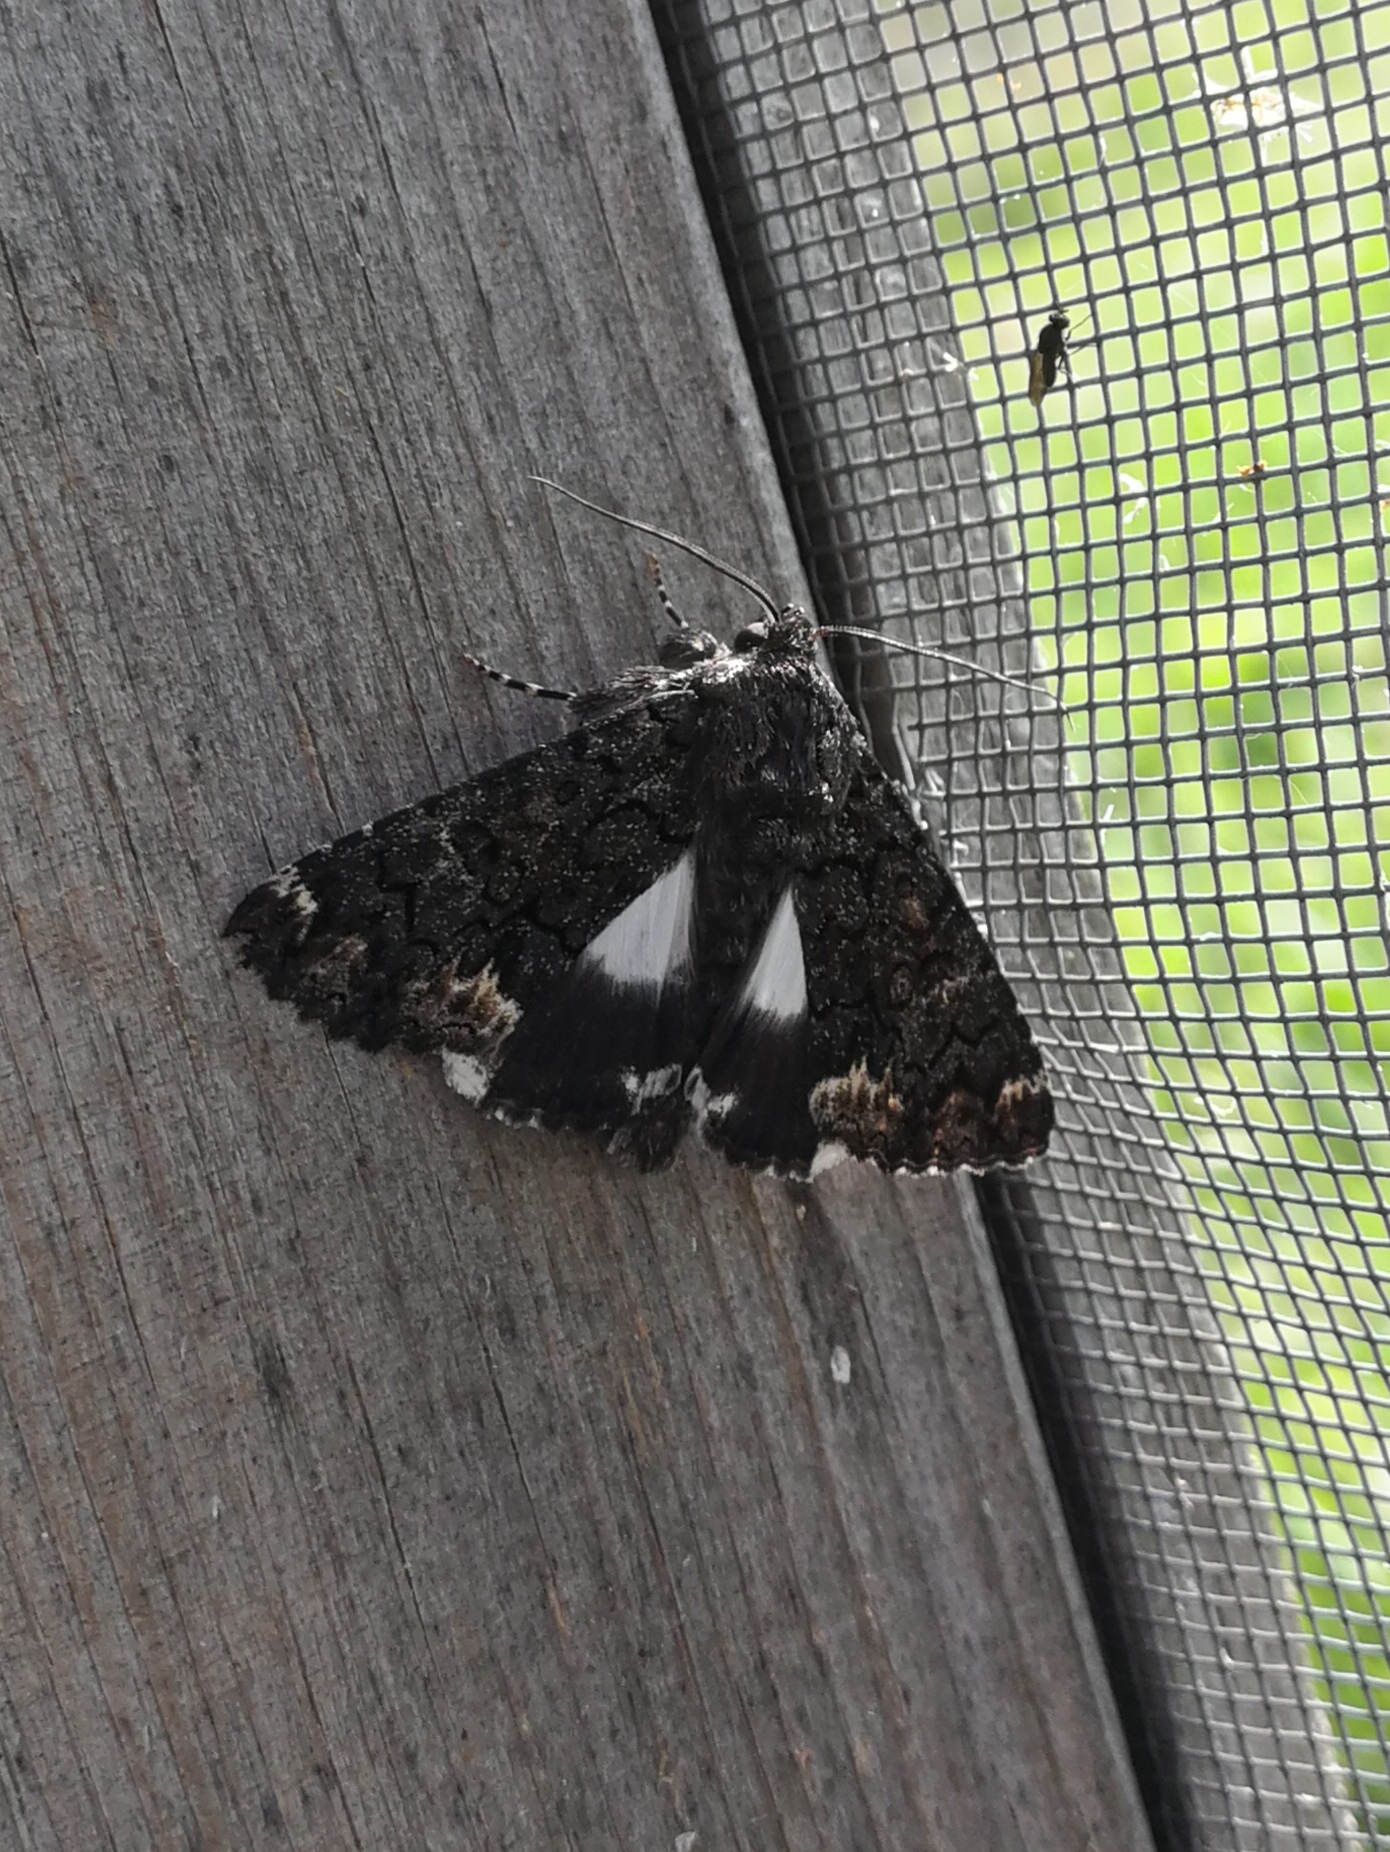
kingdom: Animalia
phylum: Arthropoda
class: Insecta
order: Lepidoptera
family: Erebidae
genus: Catephia
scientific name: Catephia alchymista
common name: Alchymist
